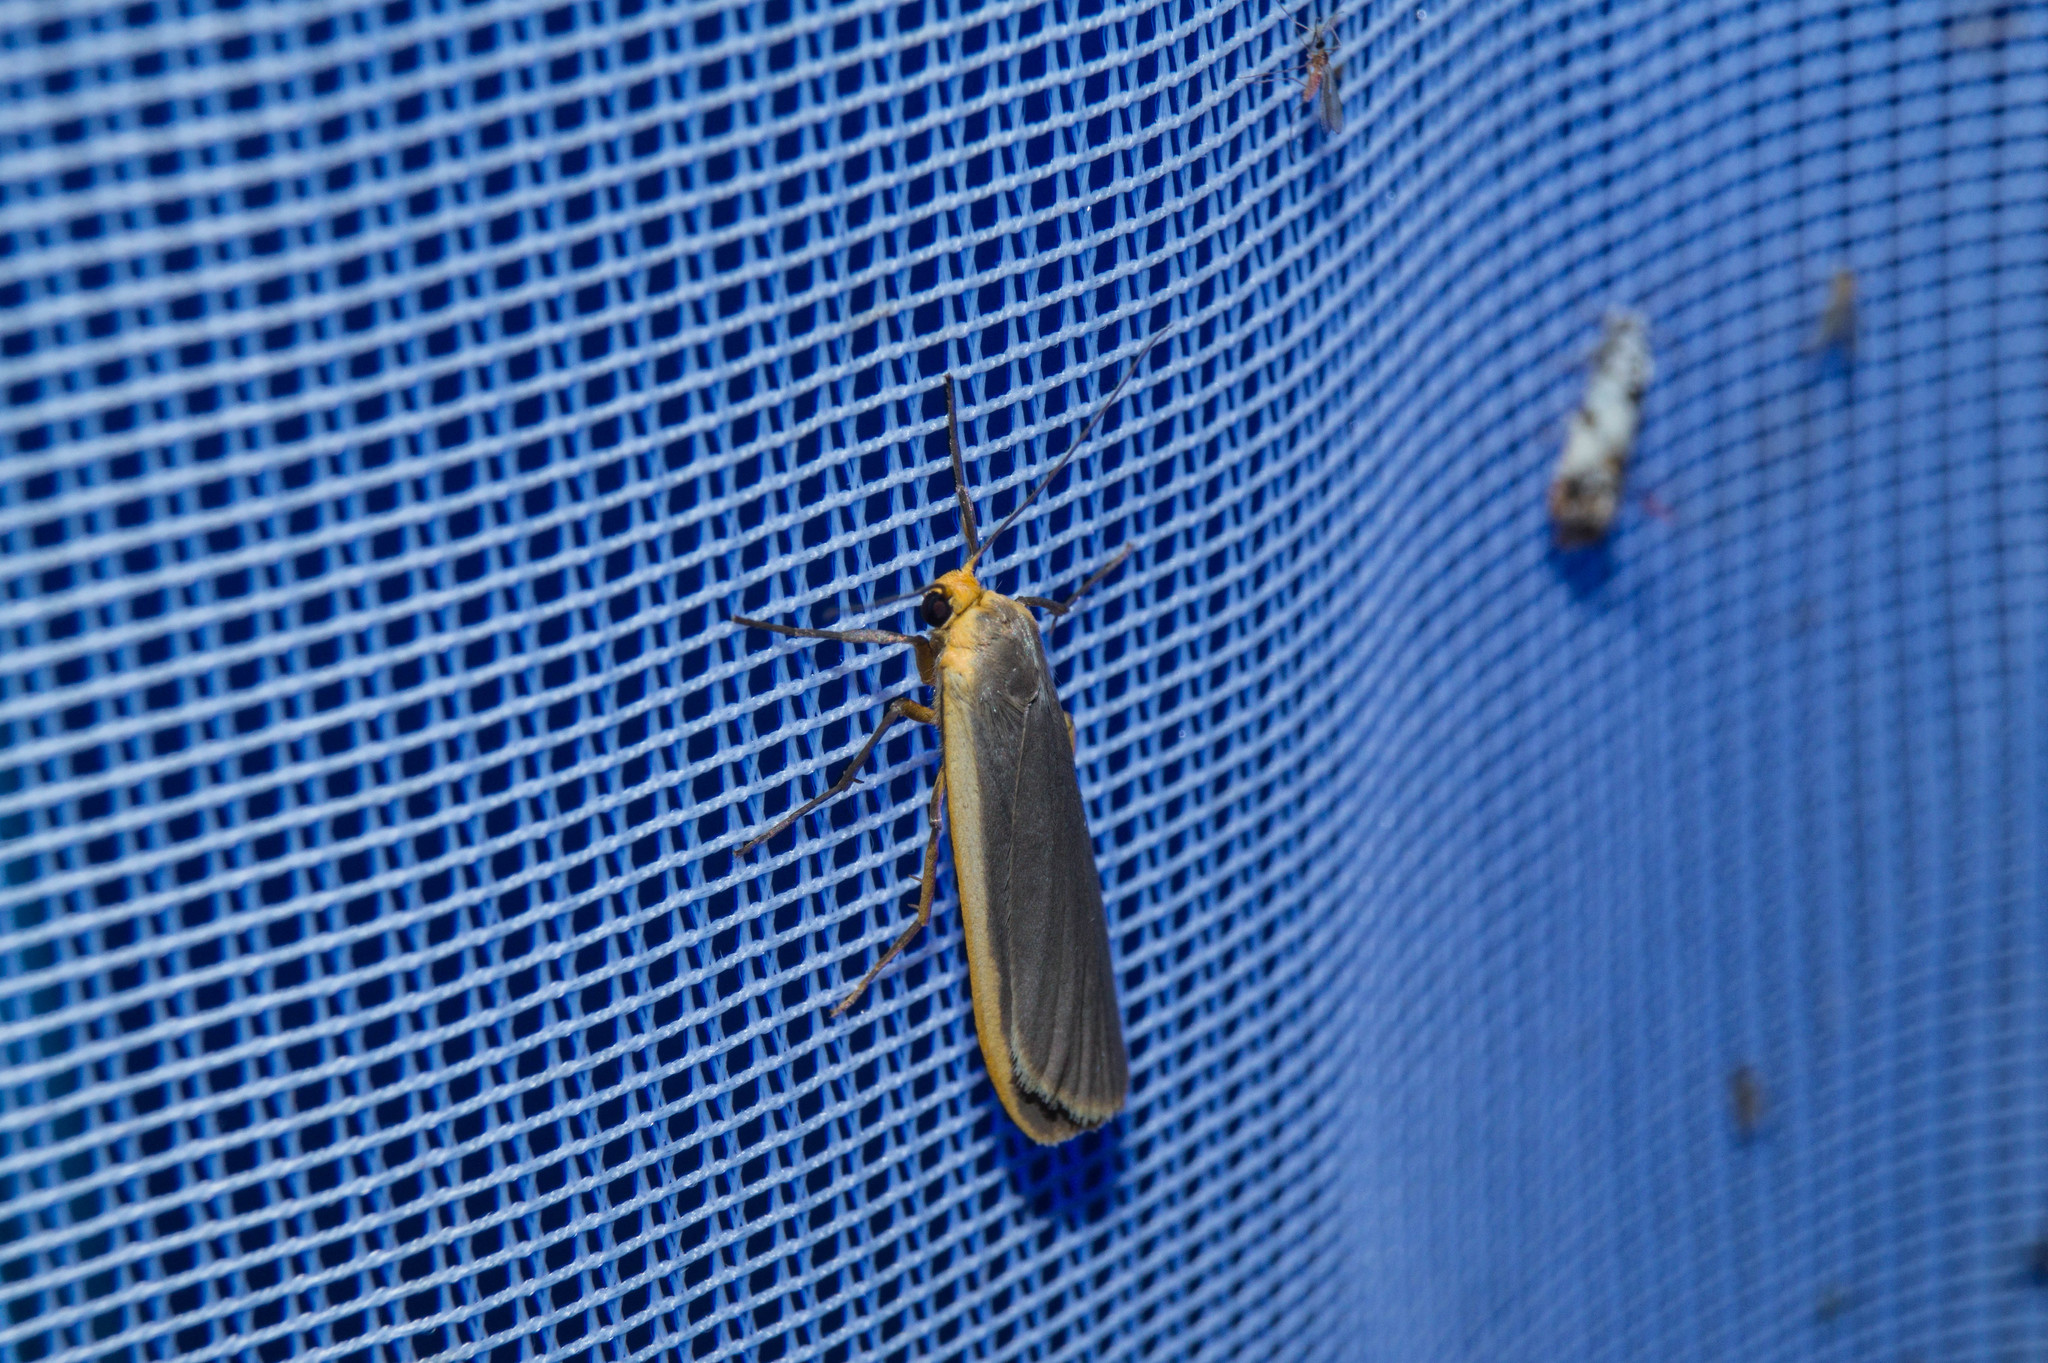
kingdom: Animalia
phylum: Arthropoda
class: Insecta
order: Lepidoptera
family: Erebidae
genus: Nyea
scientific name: Nyea lurideola
